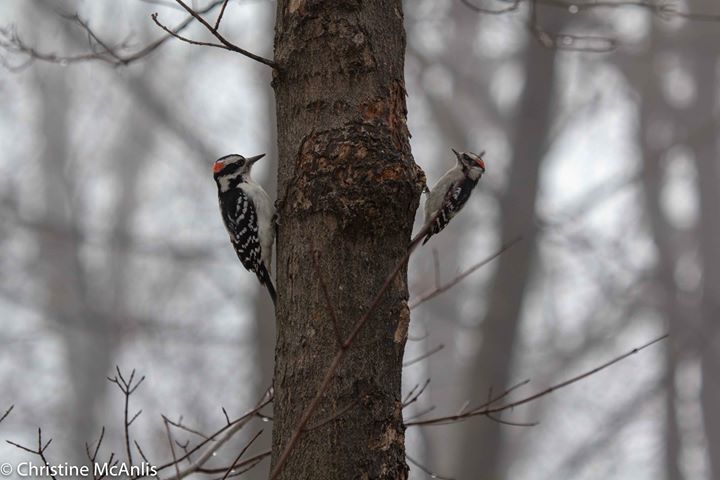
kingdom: Animalia
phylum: Chordata
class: Aves
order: Piciformes
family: Picidae
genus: Leuconotopicus
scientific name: Leuconotopicus villosus
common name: Hairy woodpecker
